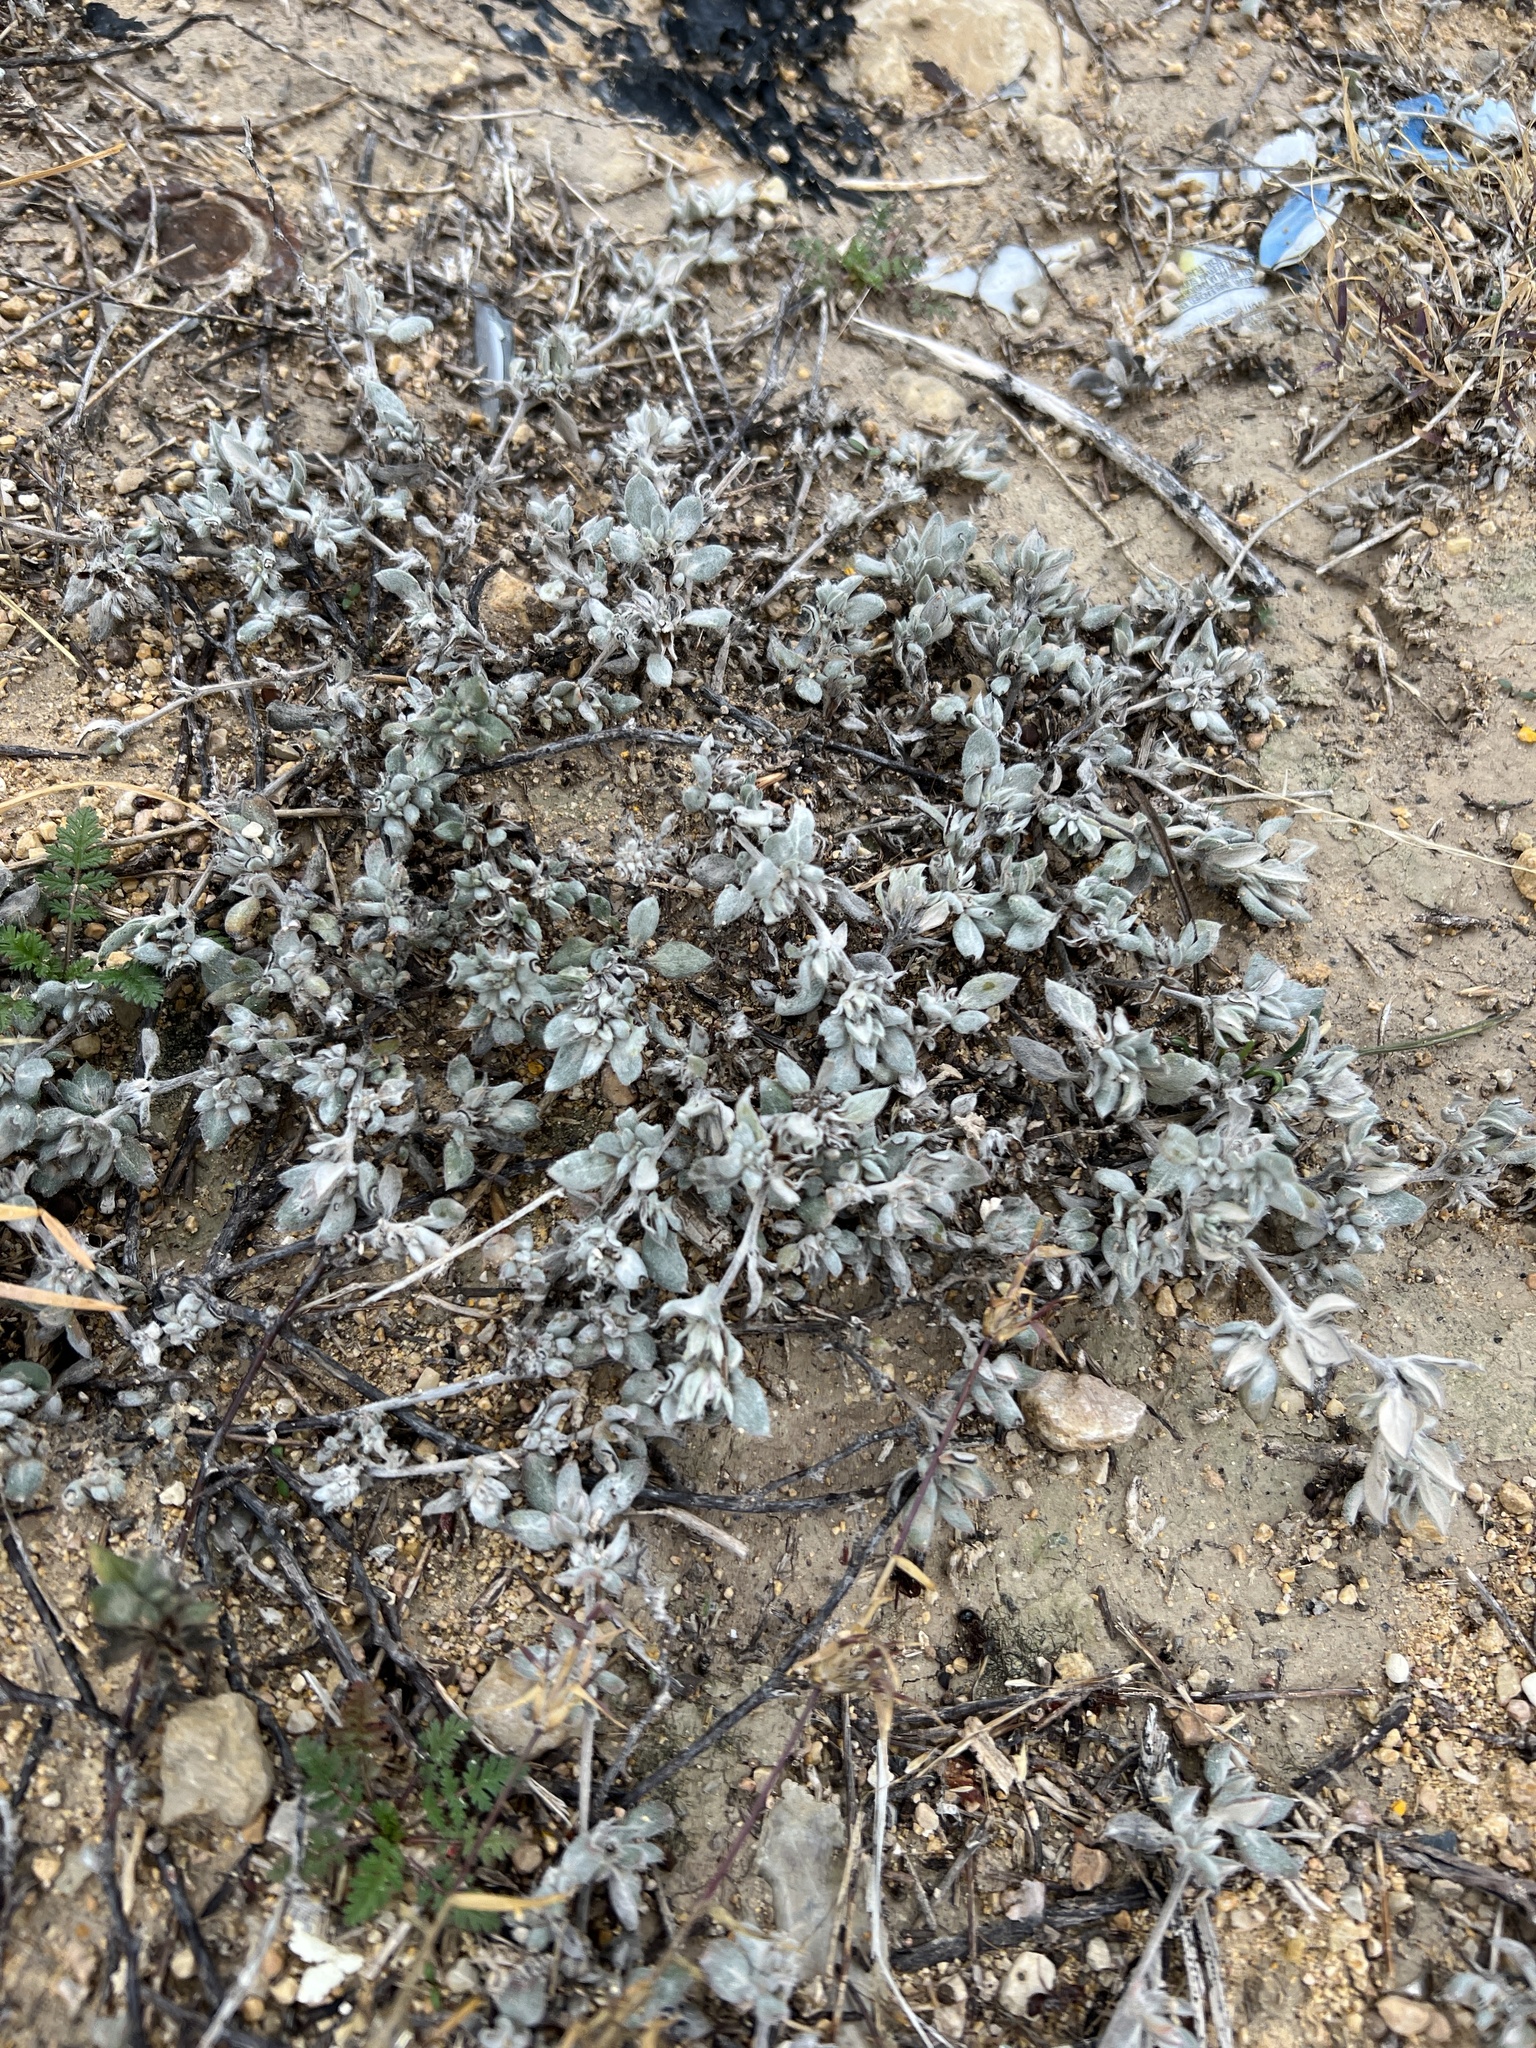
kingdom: Plantae
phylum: Tracheophyta
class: Magnoliopsida
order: Boraginales
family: Ehretiaceae
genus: Tiquilia
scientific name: Tiquilia canescens
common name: Hairy tiquilia
